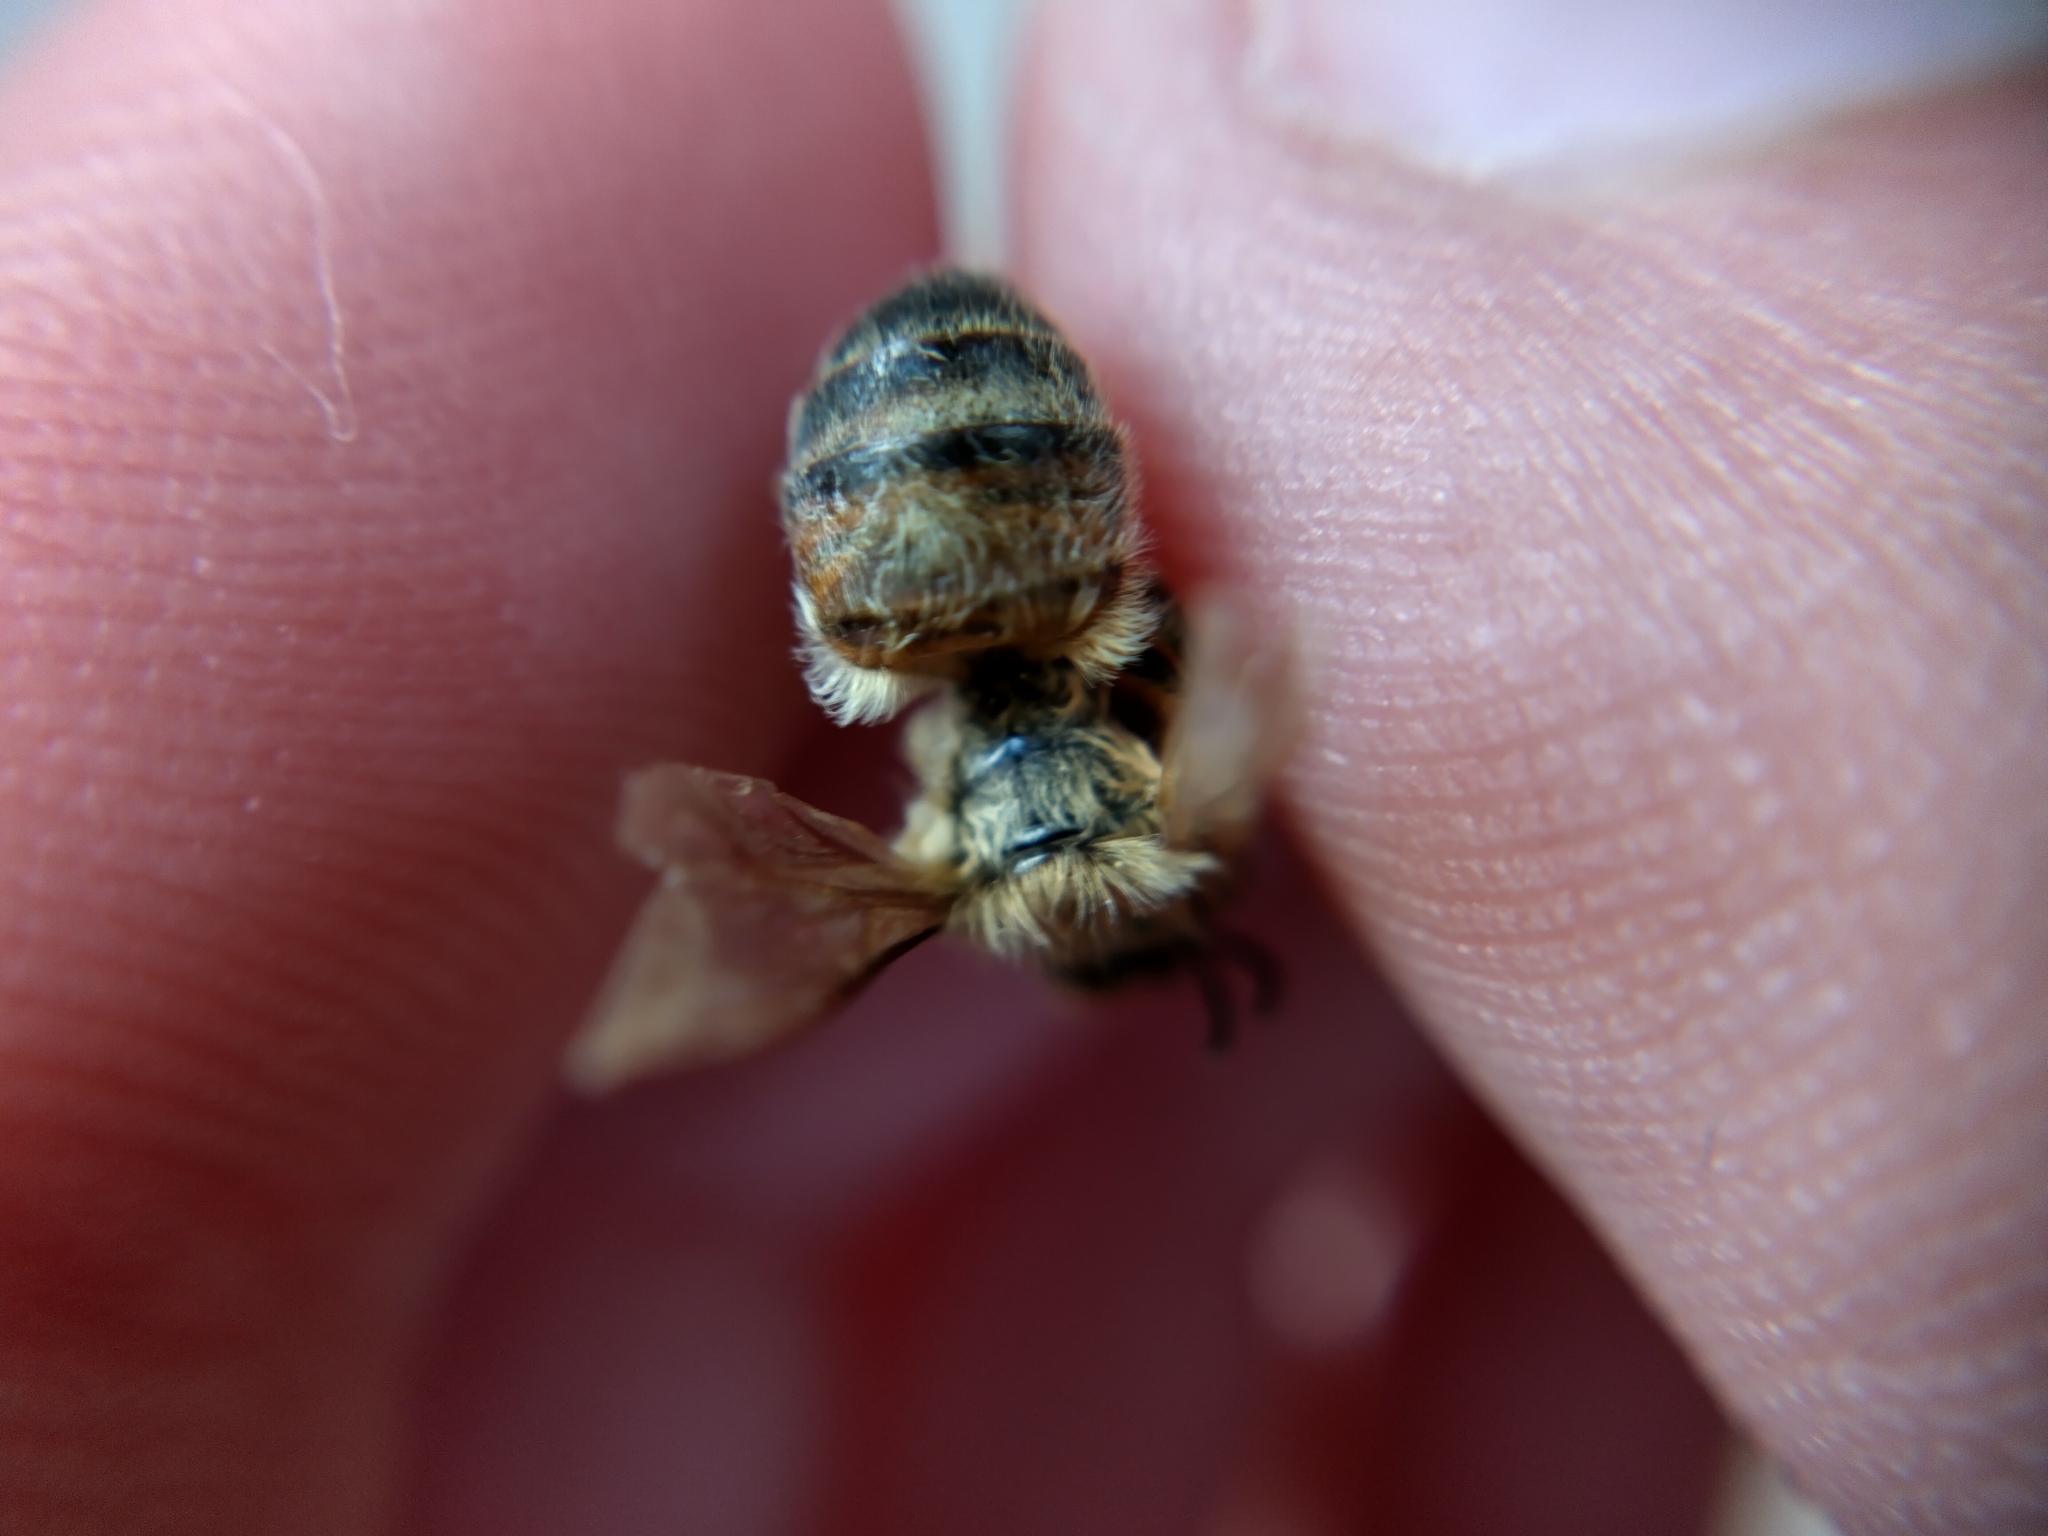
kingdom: Animalia
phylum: Arthropoda
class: Insecta
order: Hymenoptera
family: Apidae
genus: Apis
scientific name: Apis mellifera
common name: Honey bee
